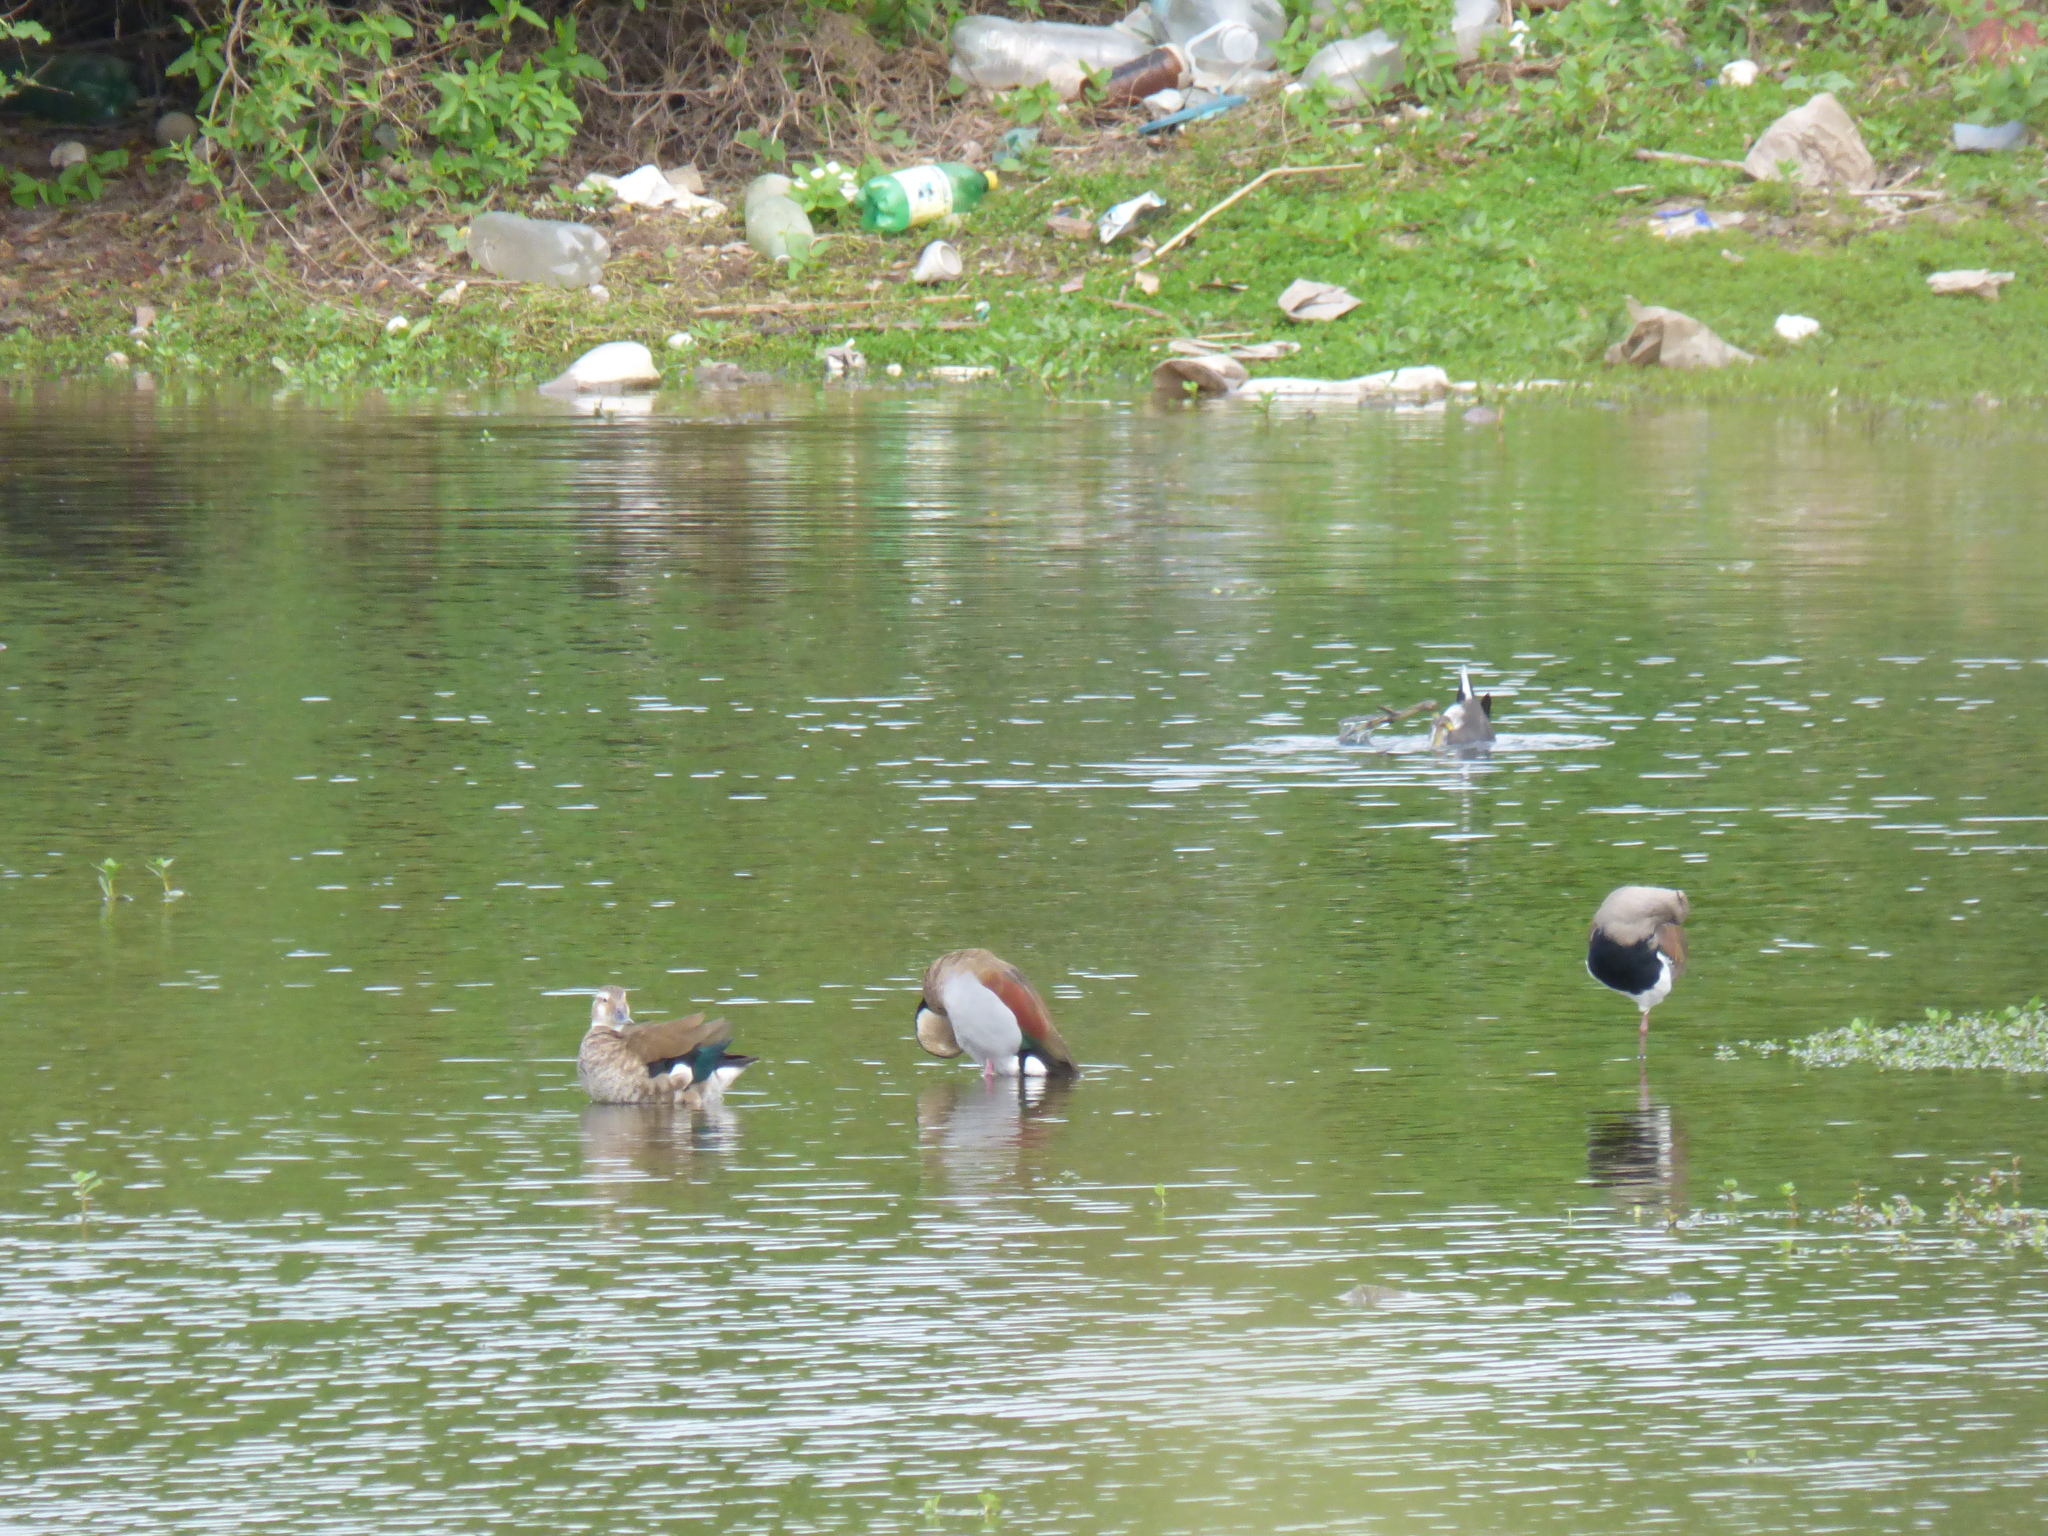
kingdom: Animalia
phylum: Chordata
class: Aves
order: Anseriformes
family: Anatidae
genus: Callonetta
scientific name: Callonetta leucophrys
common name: Ringed teal
